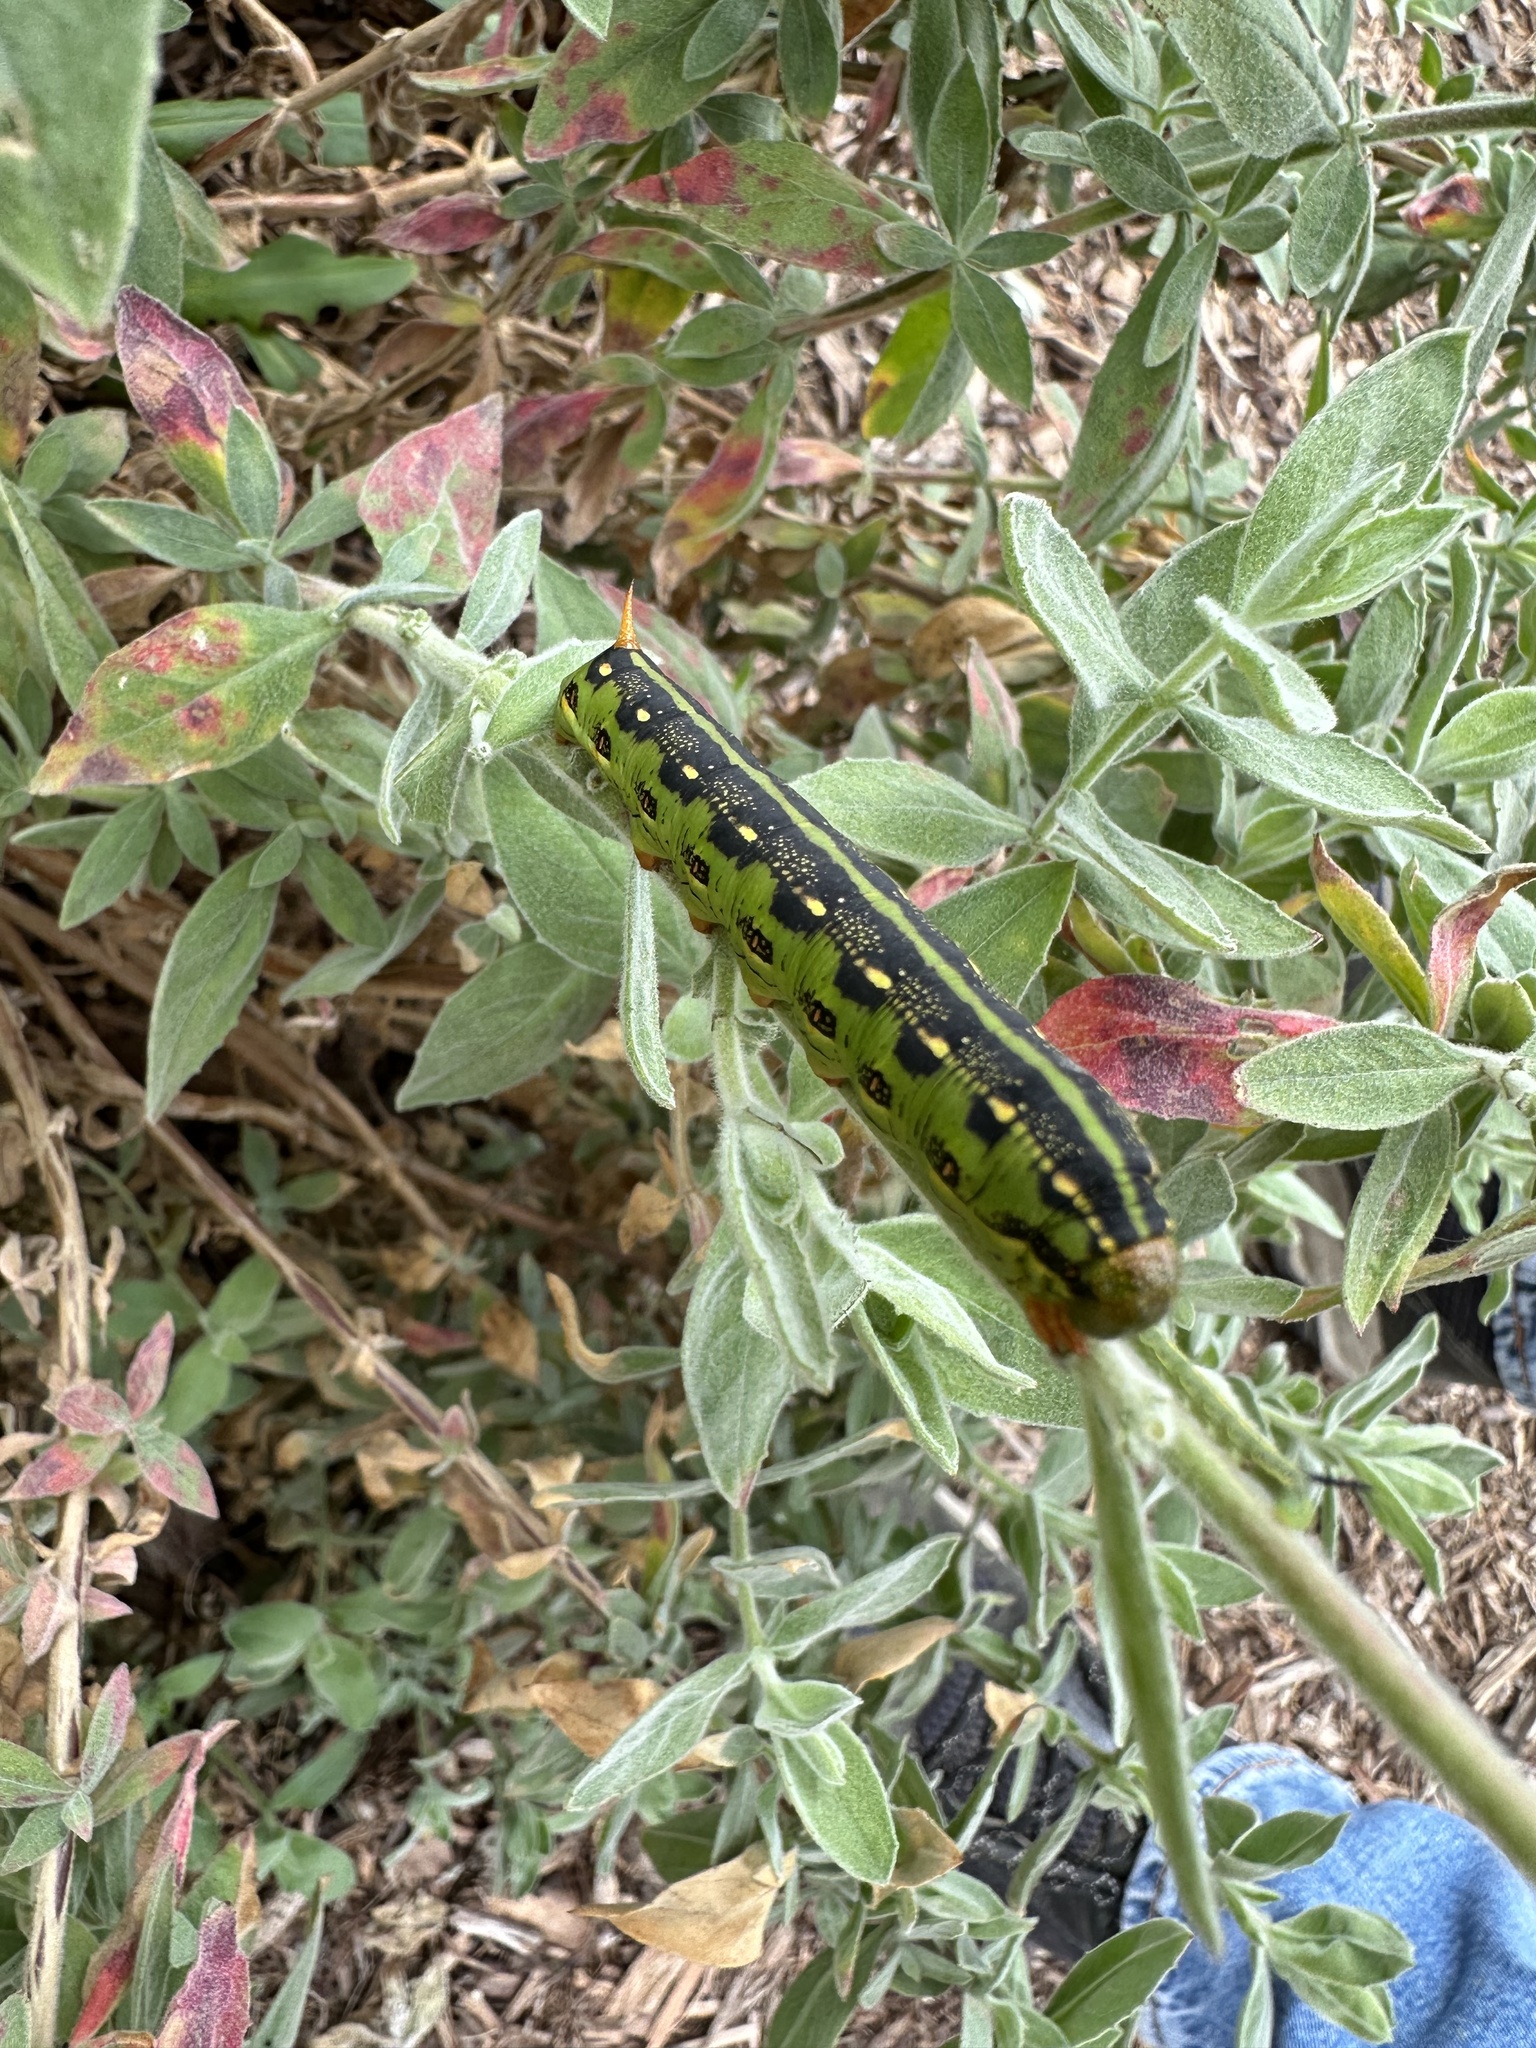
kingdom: Animalia
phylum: Arthropoda
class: Insecta
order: Lepidoptera
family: Sphingidae
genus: Hyles
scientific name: Hyles lineata
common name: White-lined sphinx
